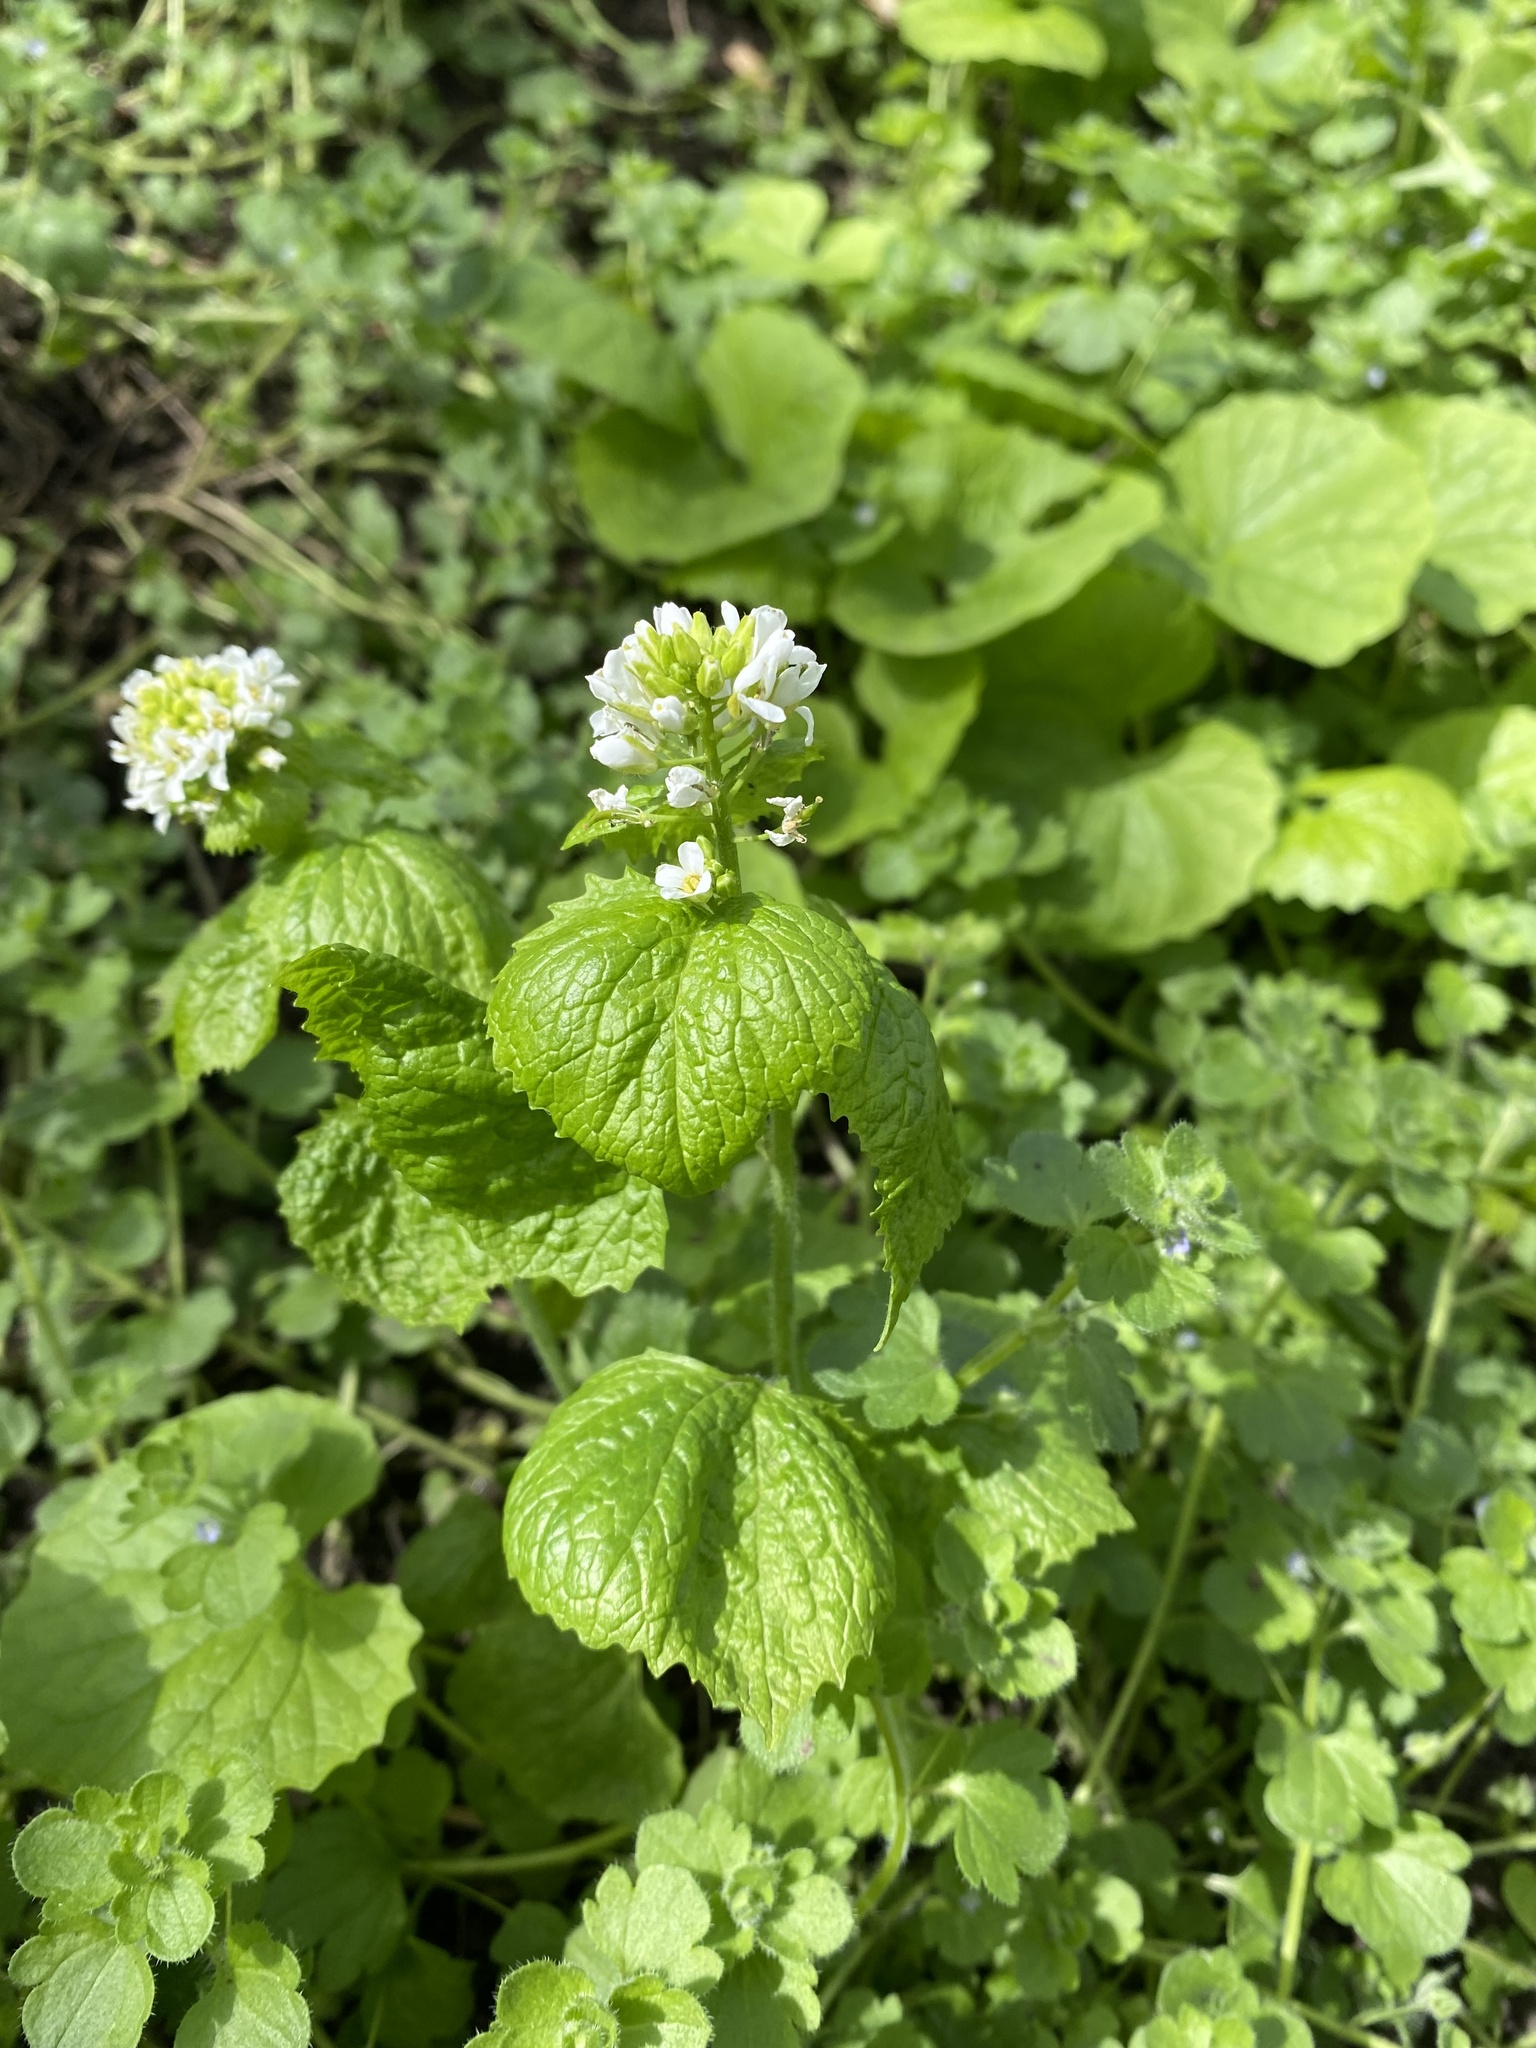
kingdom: Plantae
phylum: Tracheophyta
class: Magnoliopsida
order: Brassicales
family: Brassicaceae
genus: Alliaria
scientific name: Alliaria petiolata
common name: Garlic mustard
